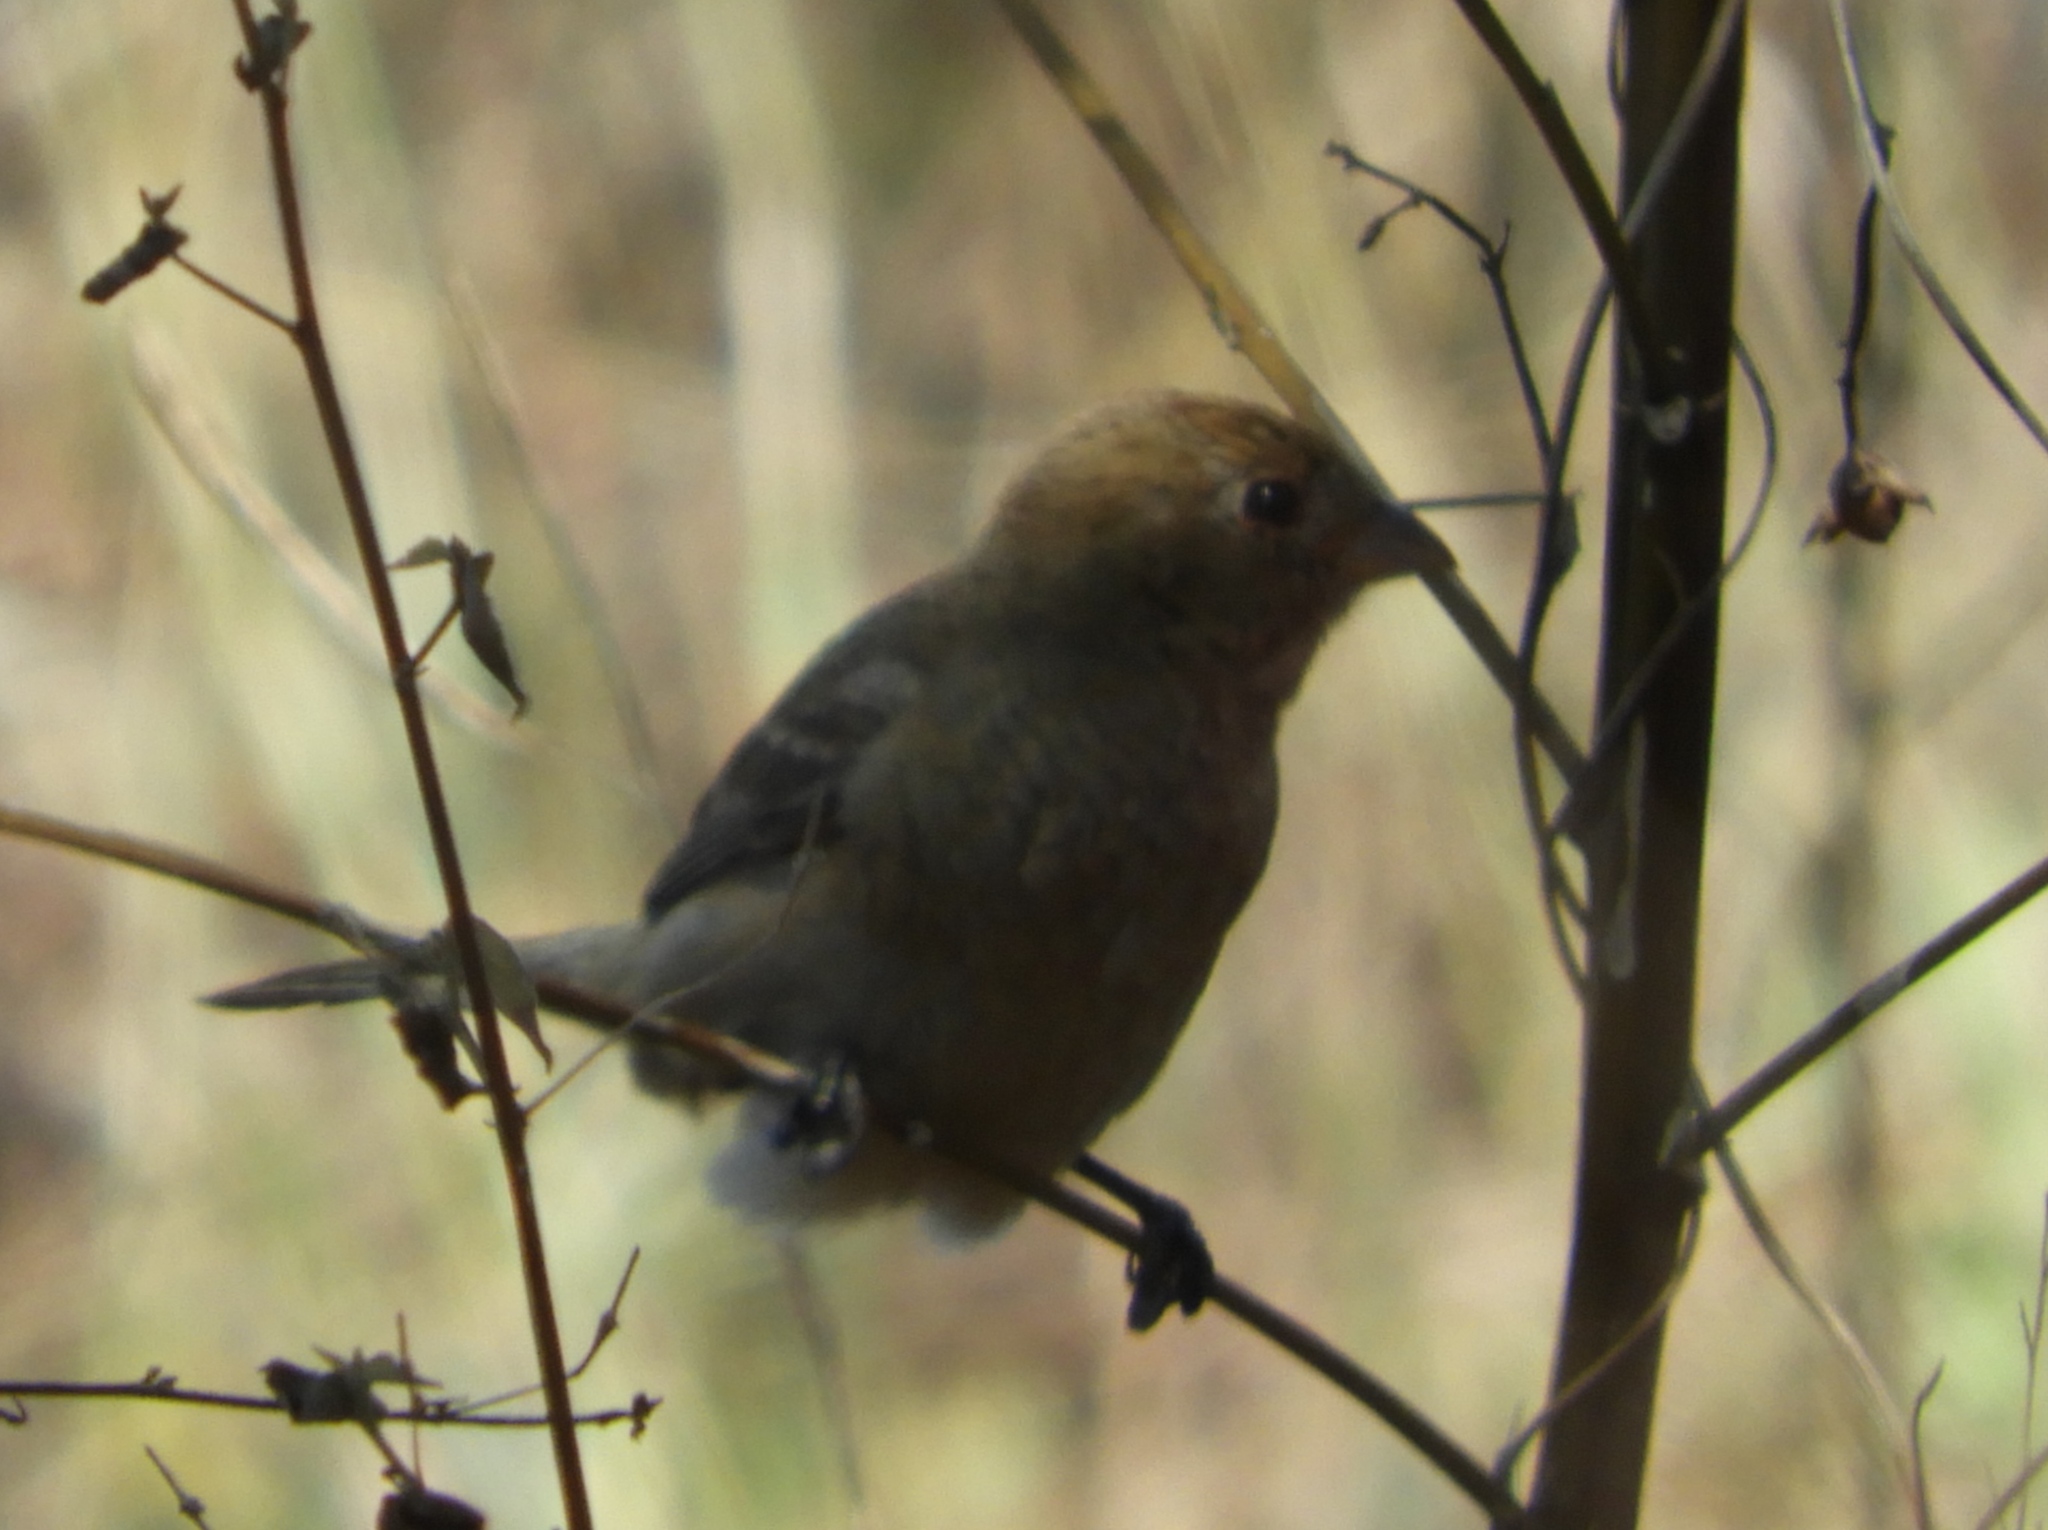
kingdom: Animalia
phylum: Chordata
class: Aves
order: Passeriformes
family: Cardinalidae
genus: Passerina
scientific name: Passerina
